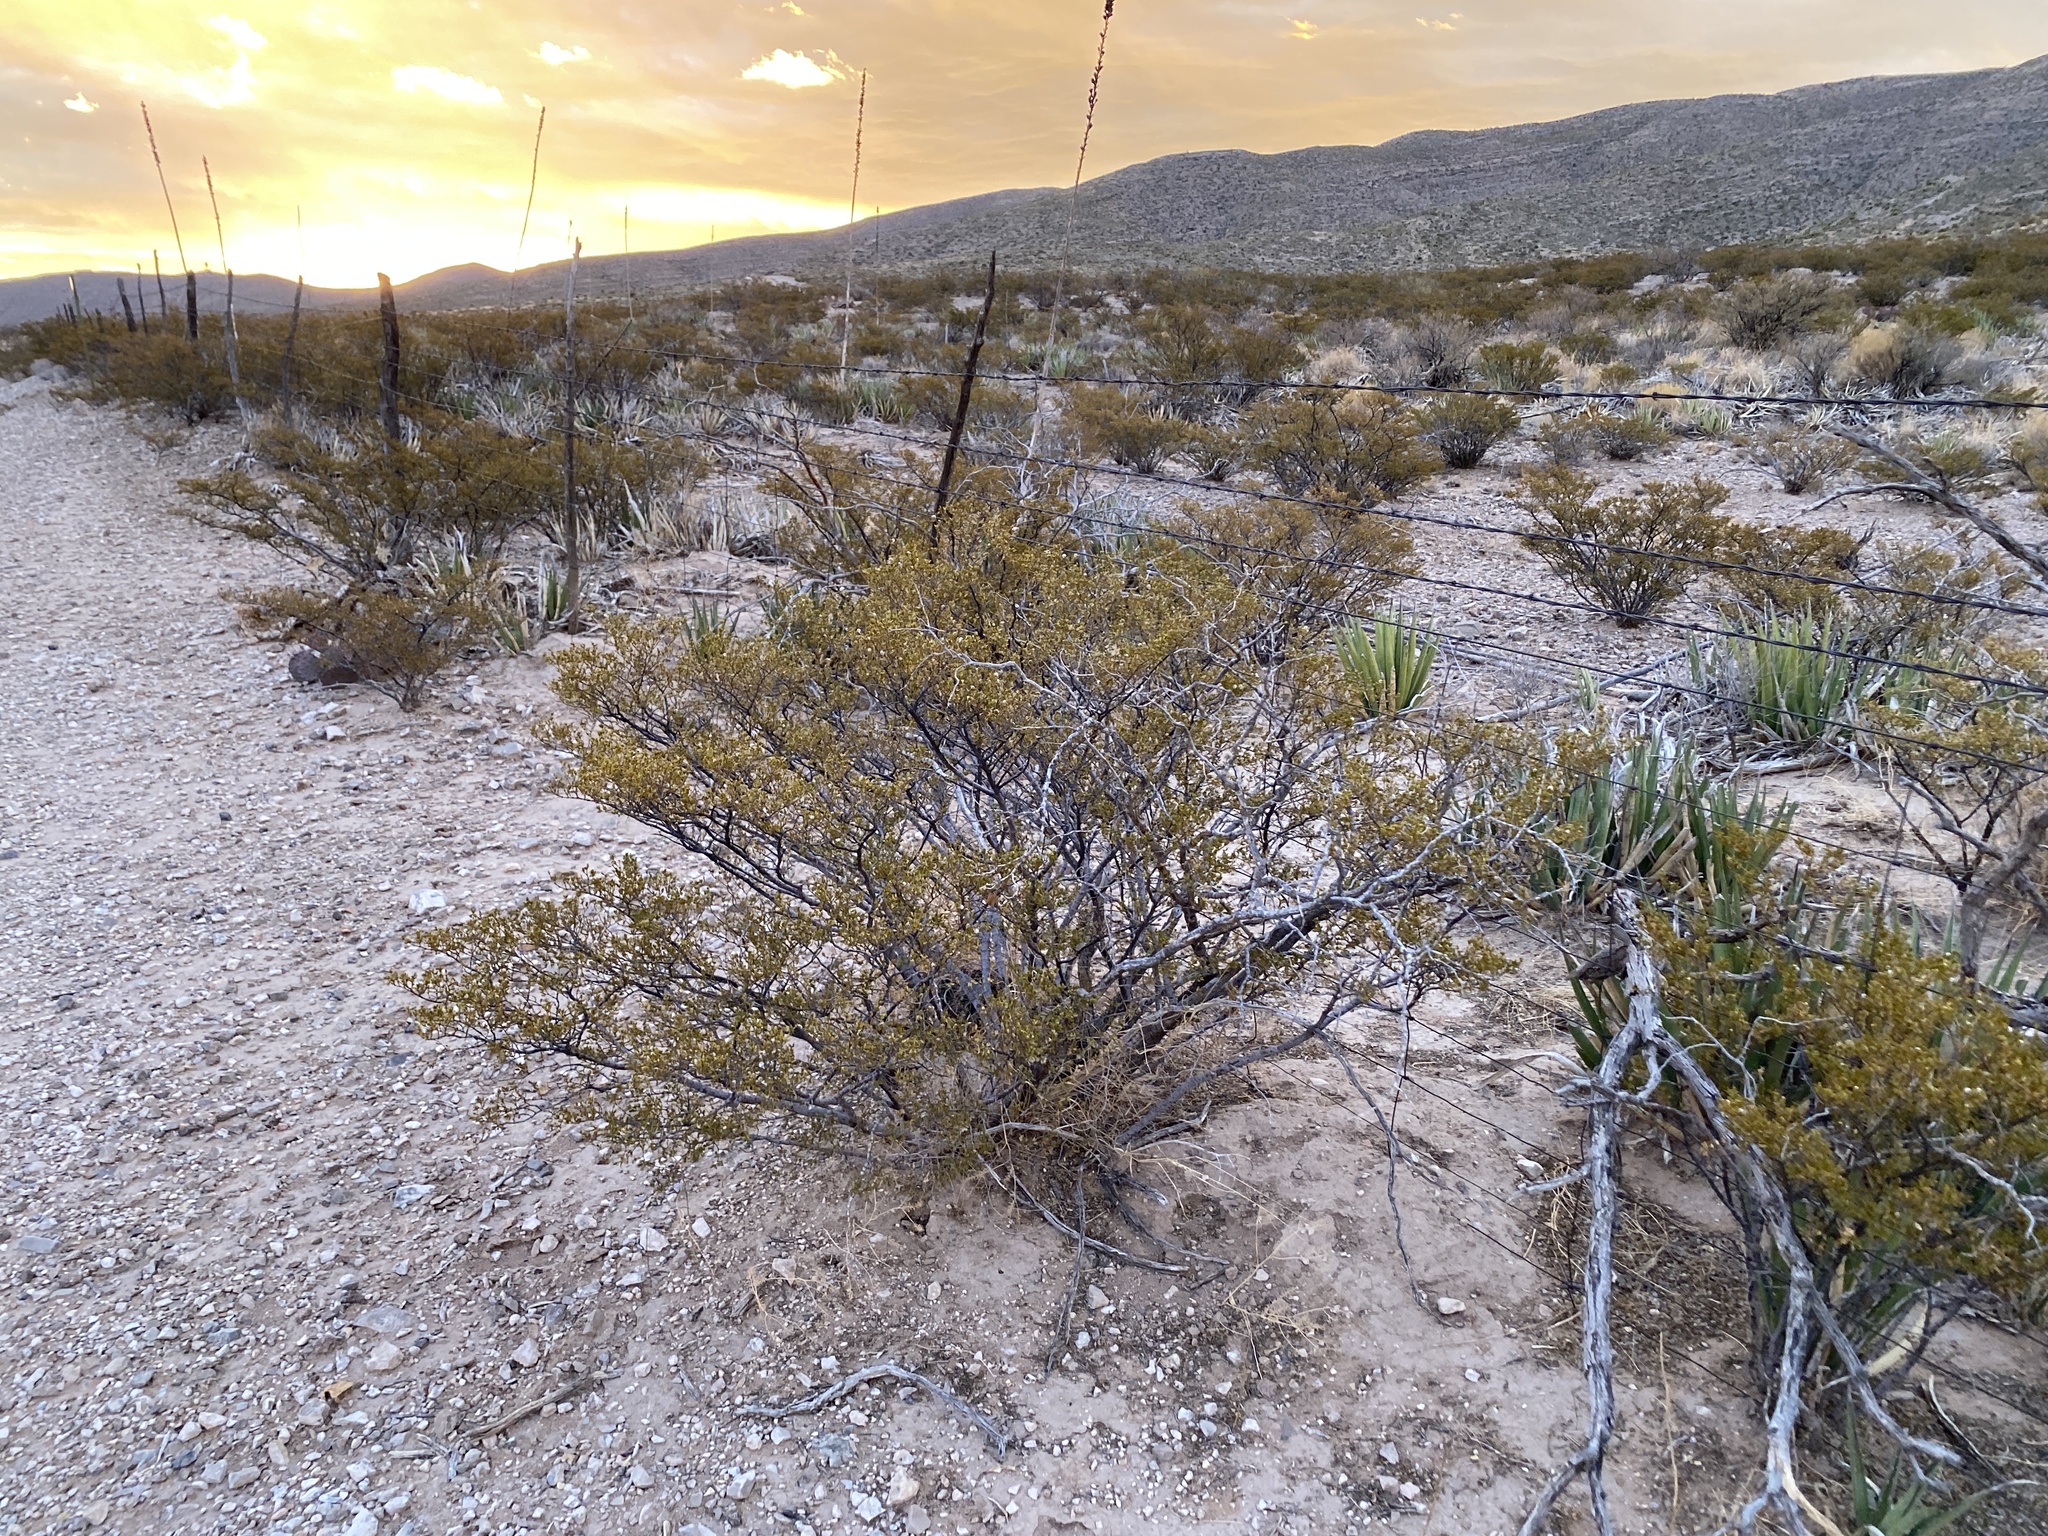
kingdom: Plantae
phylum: Tracheophyta
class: Magnoliopsida
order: Zygophyllales
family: Zygophyllaceae
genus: Larrea
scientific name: Larrea tridentata
